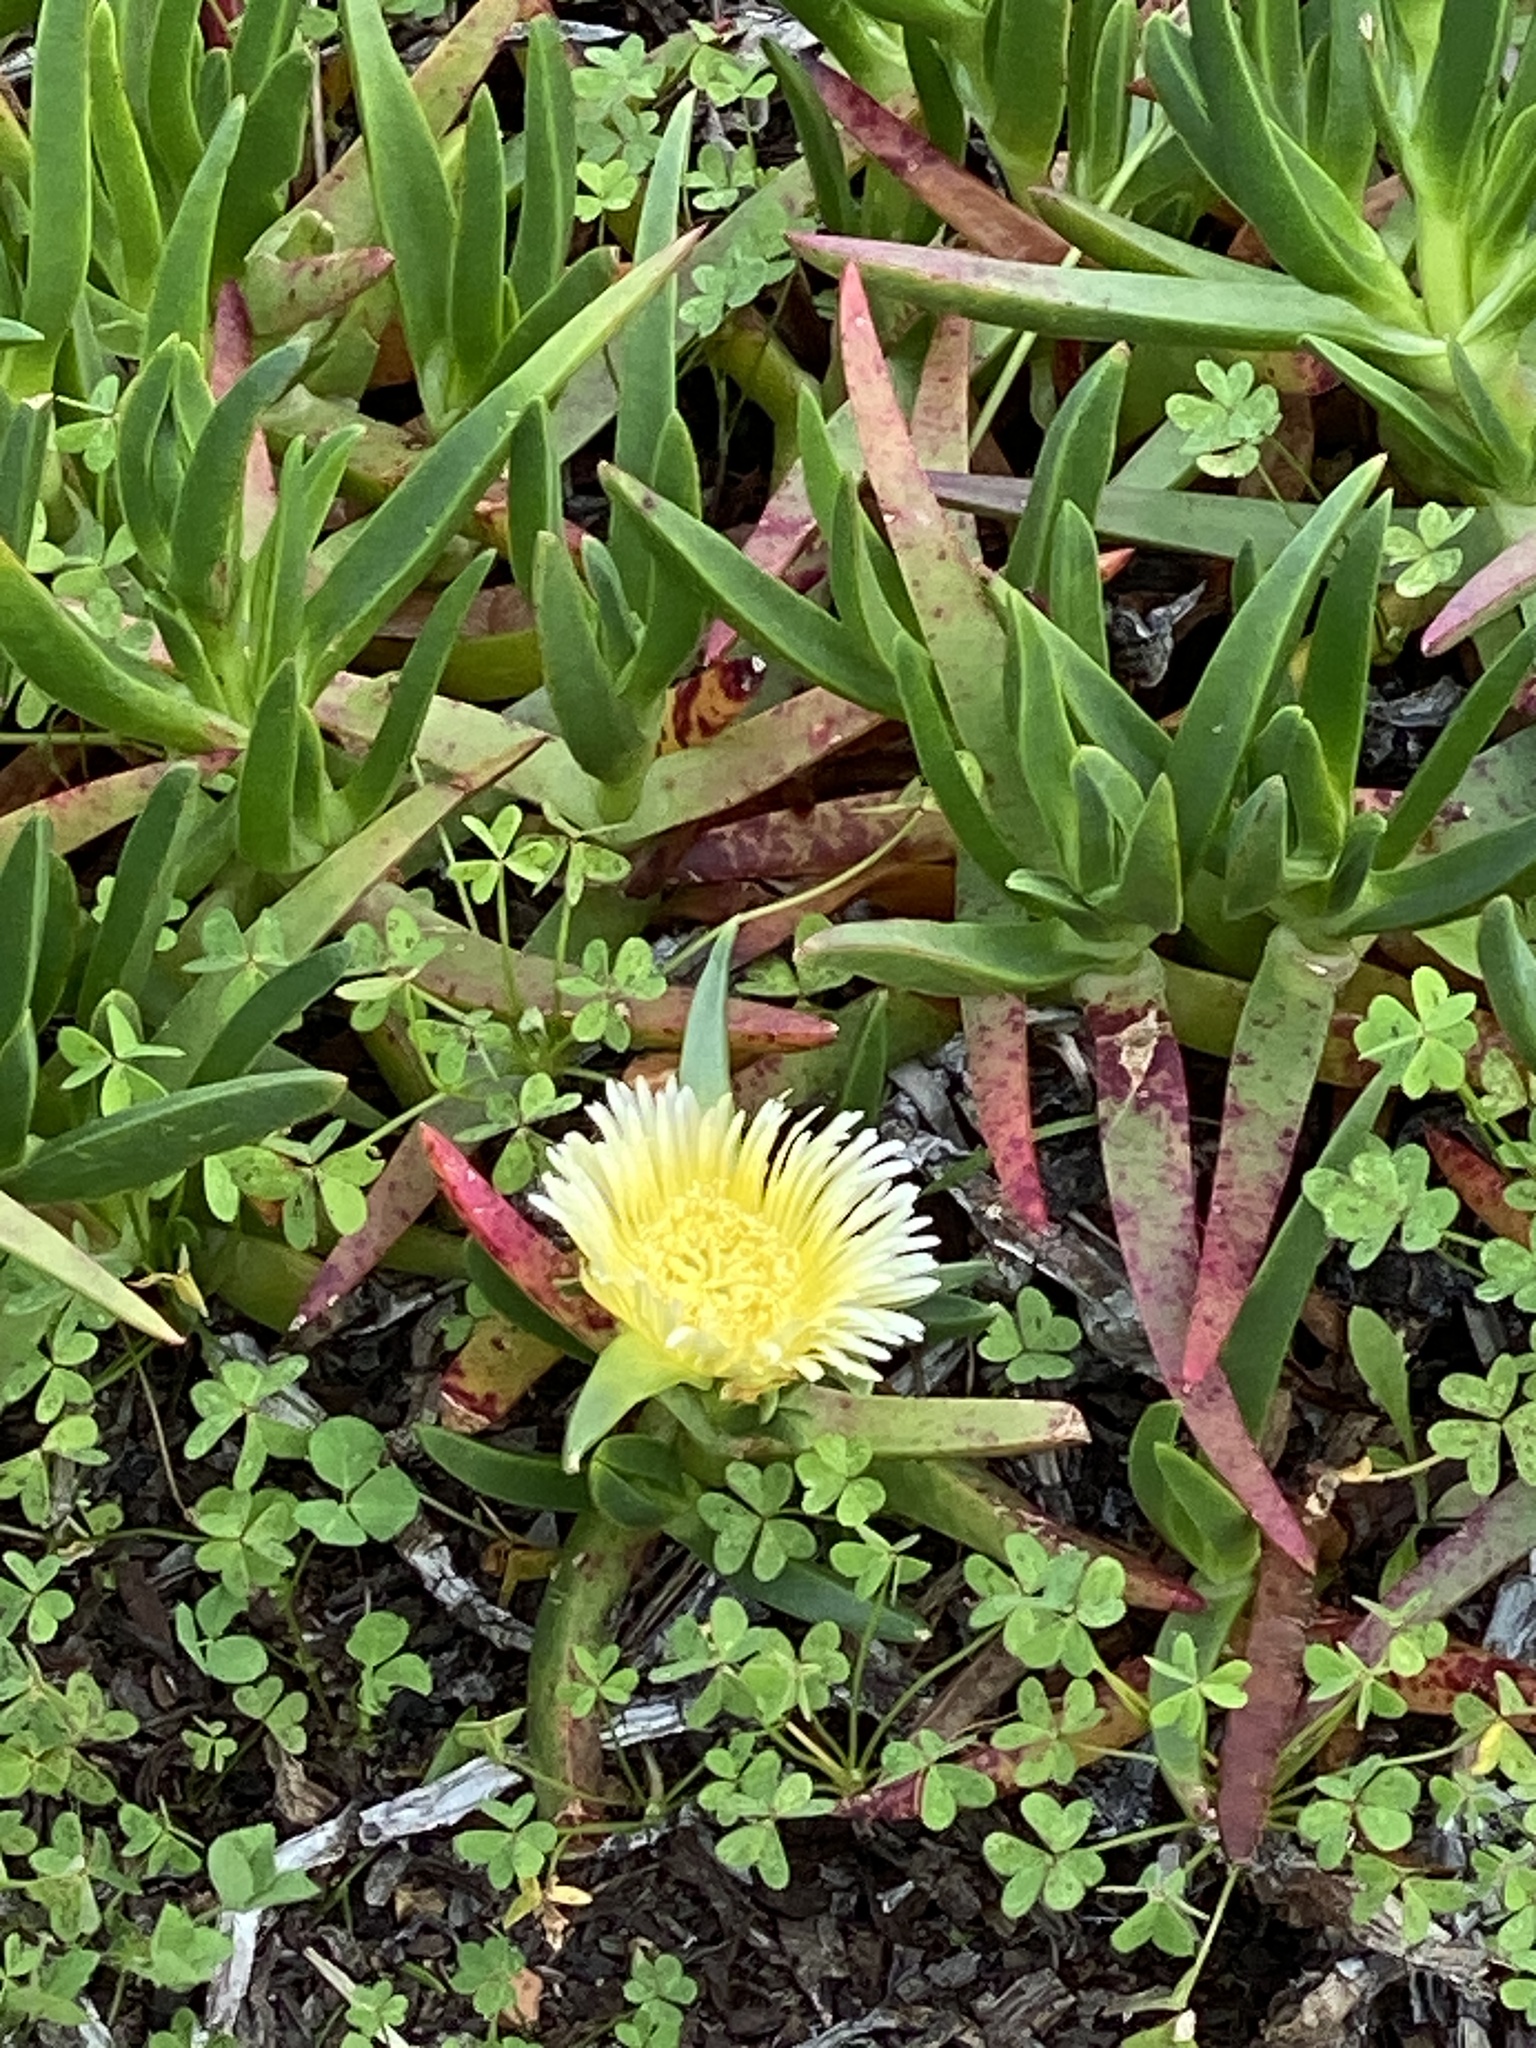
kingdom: Plantae
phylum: Tracheophyta
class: Magnoliopsida
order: Caryophyllales
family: Aizoaceae
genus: Carpobrotus
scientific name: Carpobrotus edulis
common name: Hottentot-fig
